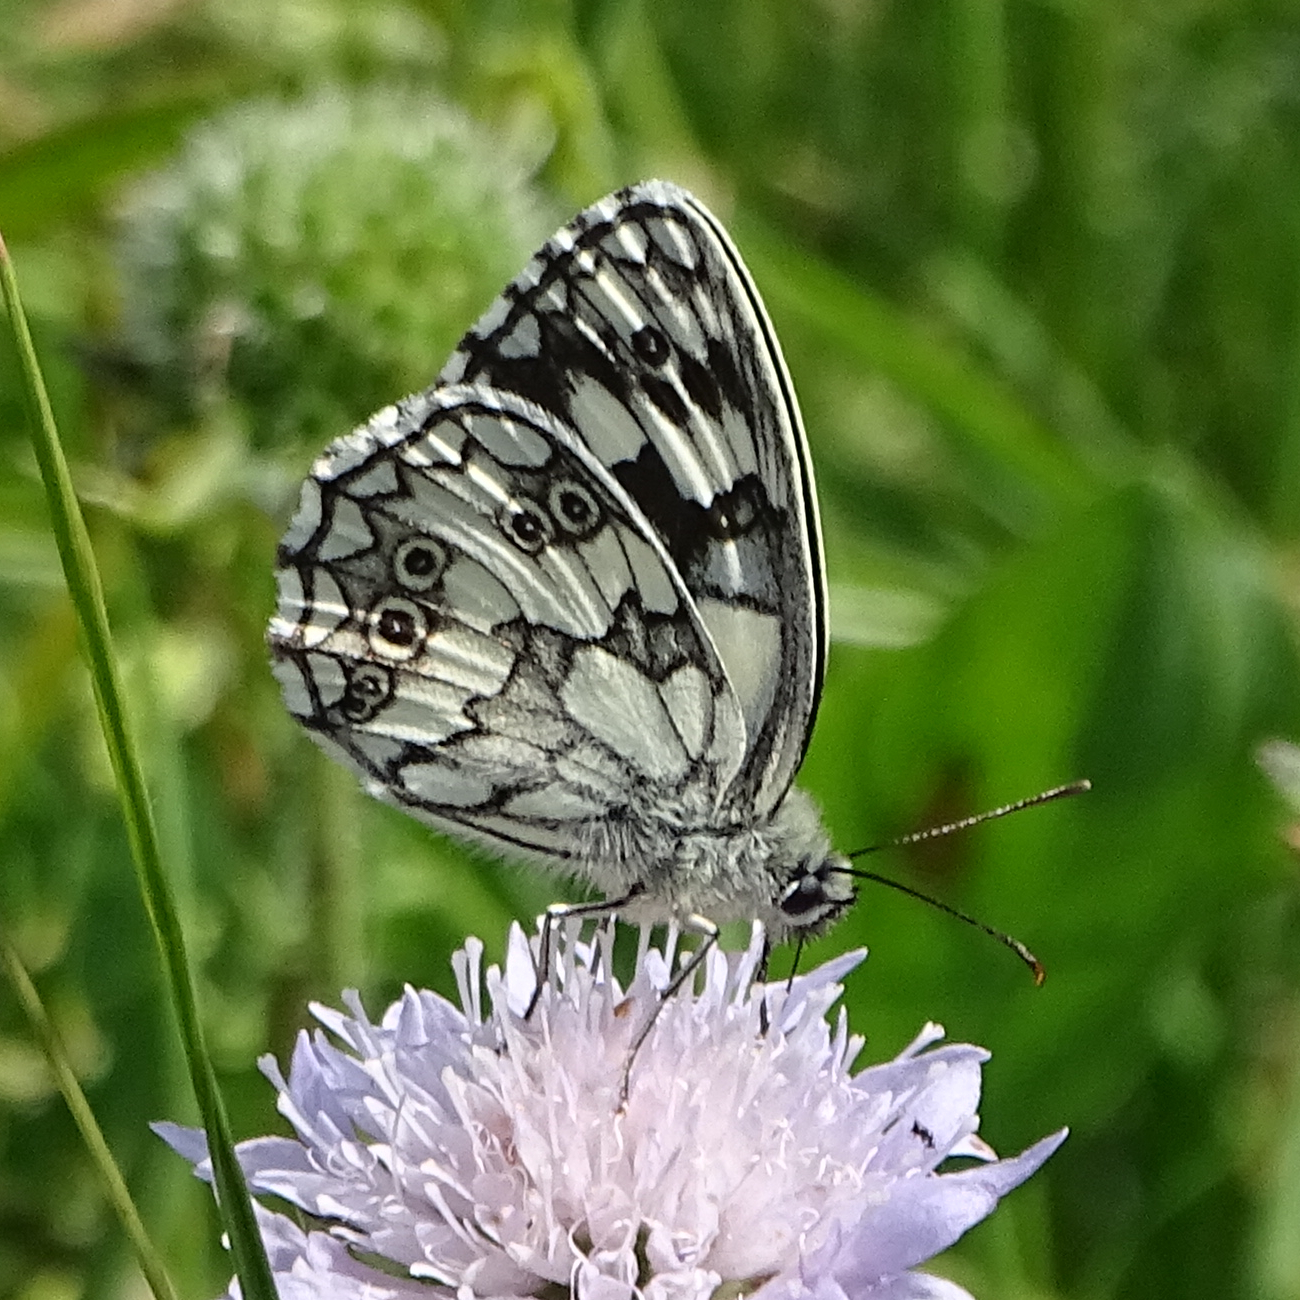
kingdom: Animalia
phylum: Arthropoda
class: Insecta
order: Lepidoptera
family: Nymphalidae
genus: Melanargia
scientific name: Melanargia galathea
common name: Marbled white
